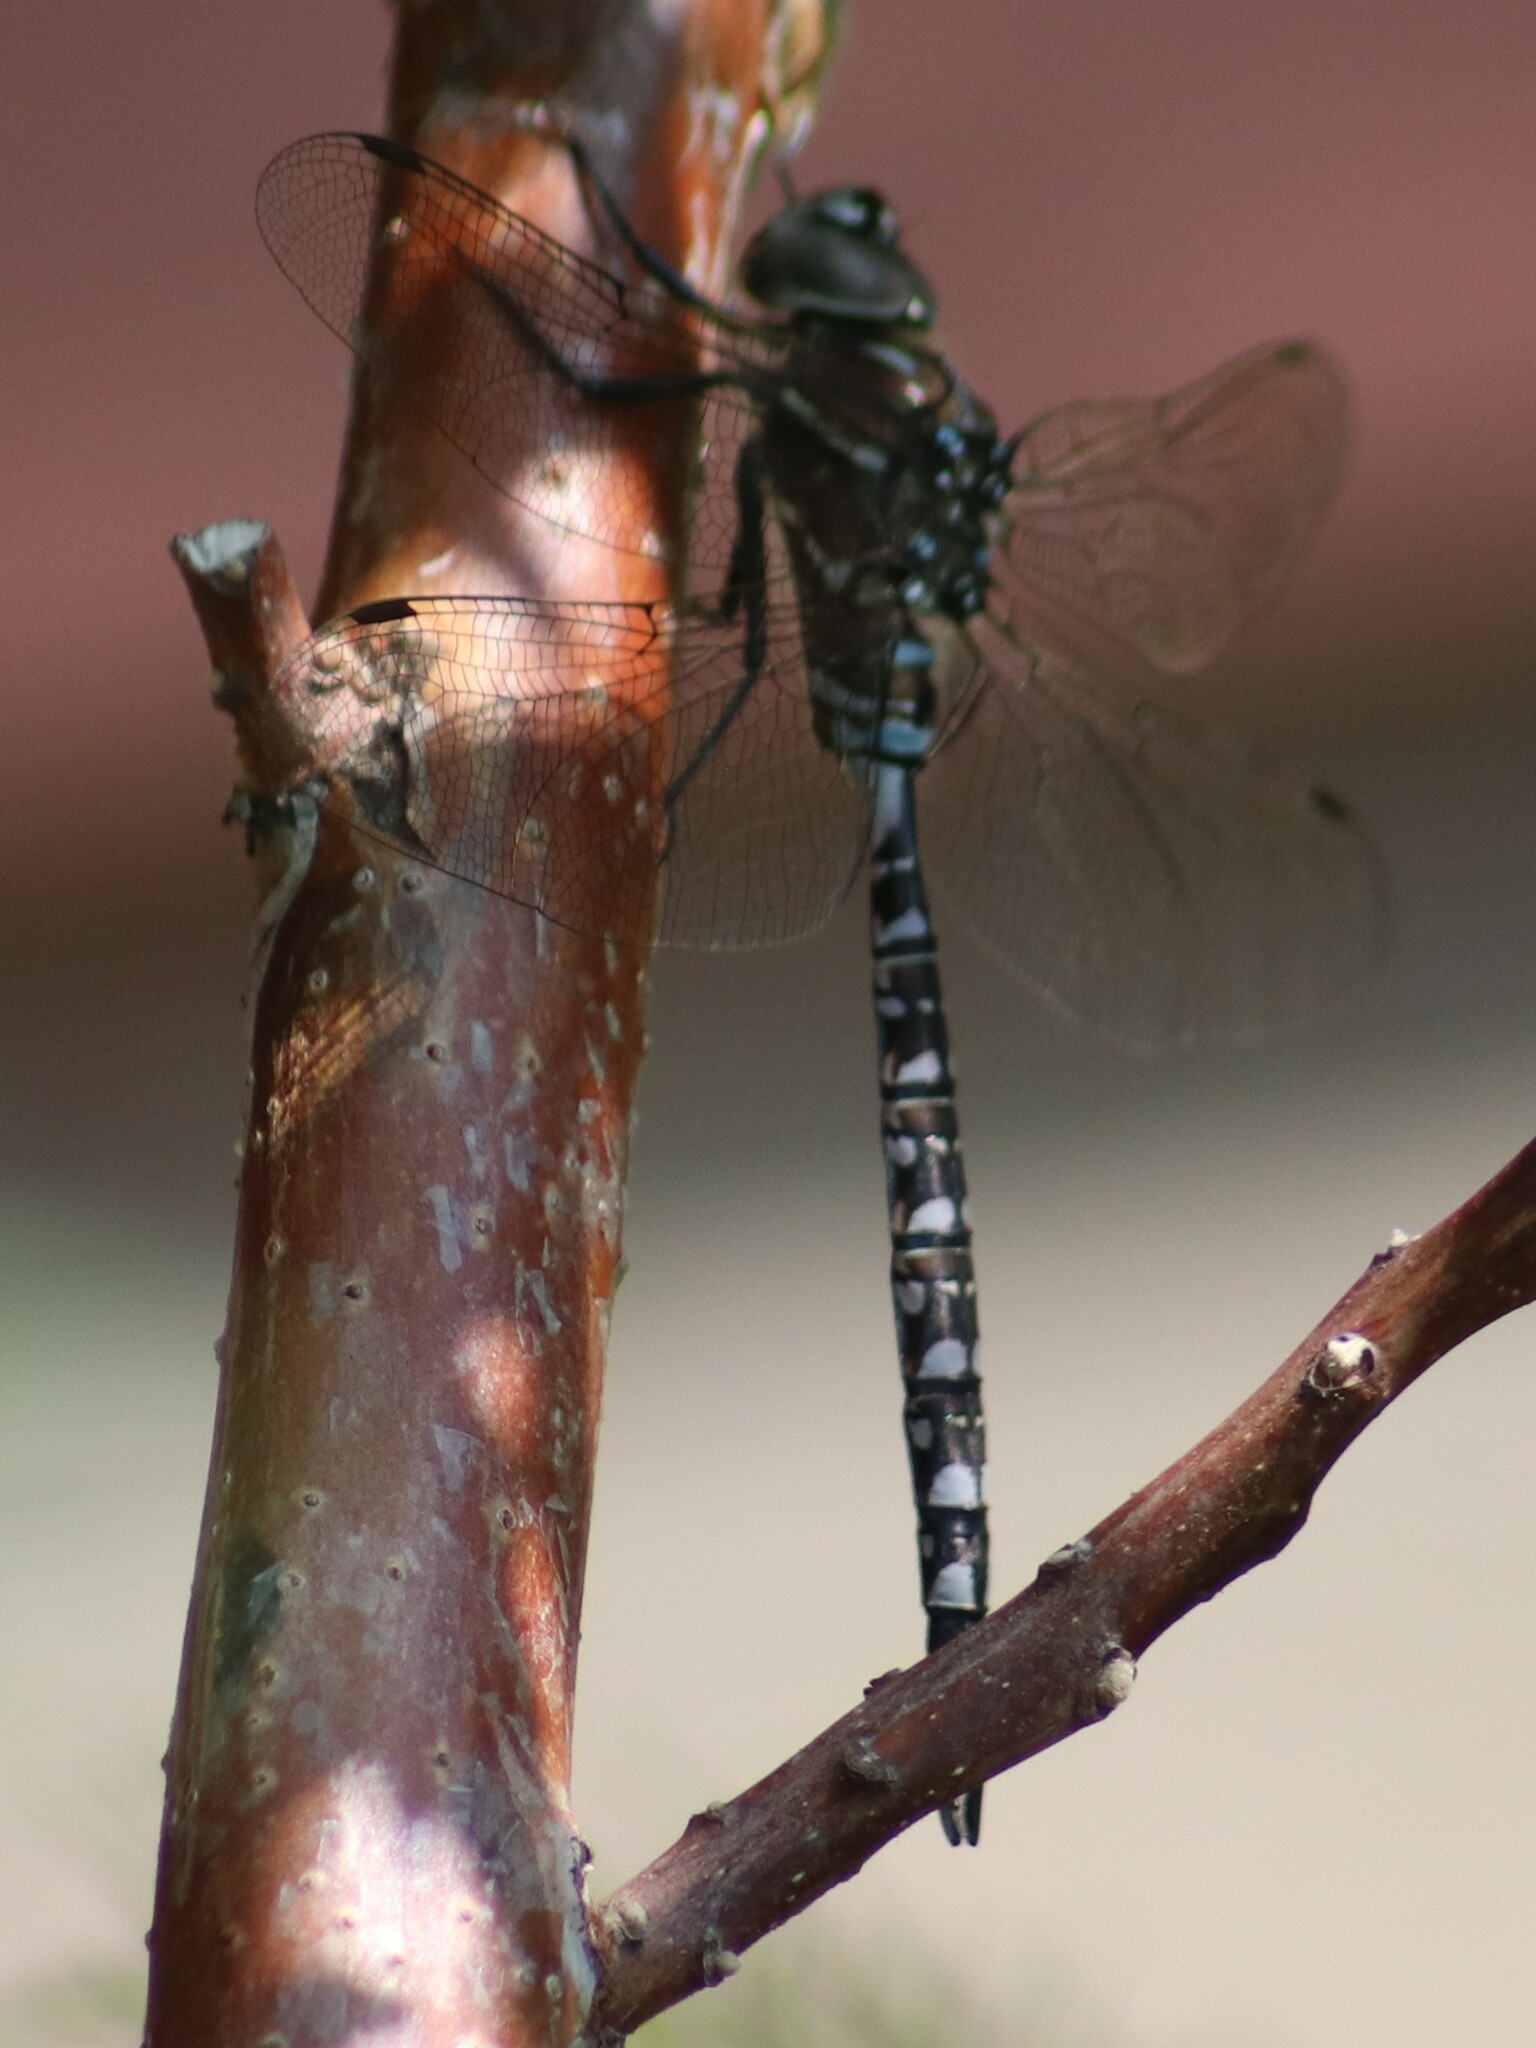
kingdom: Animalia
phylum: Arthropoda
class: Insecta
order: Odonata
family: Aeshnidae
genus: Aeshna
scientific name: Aeshna interrupta
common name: Variable darner
